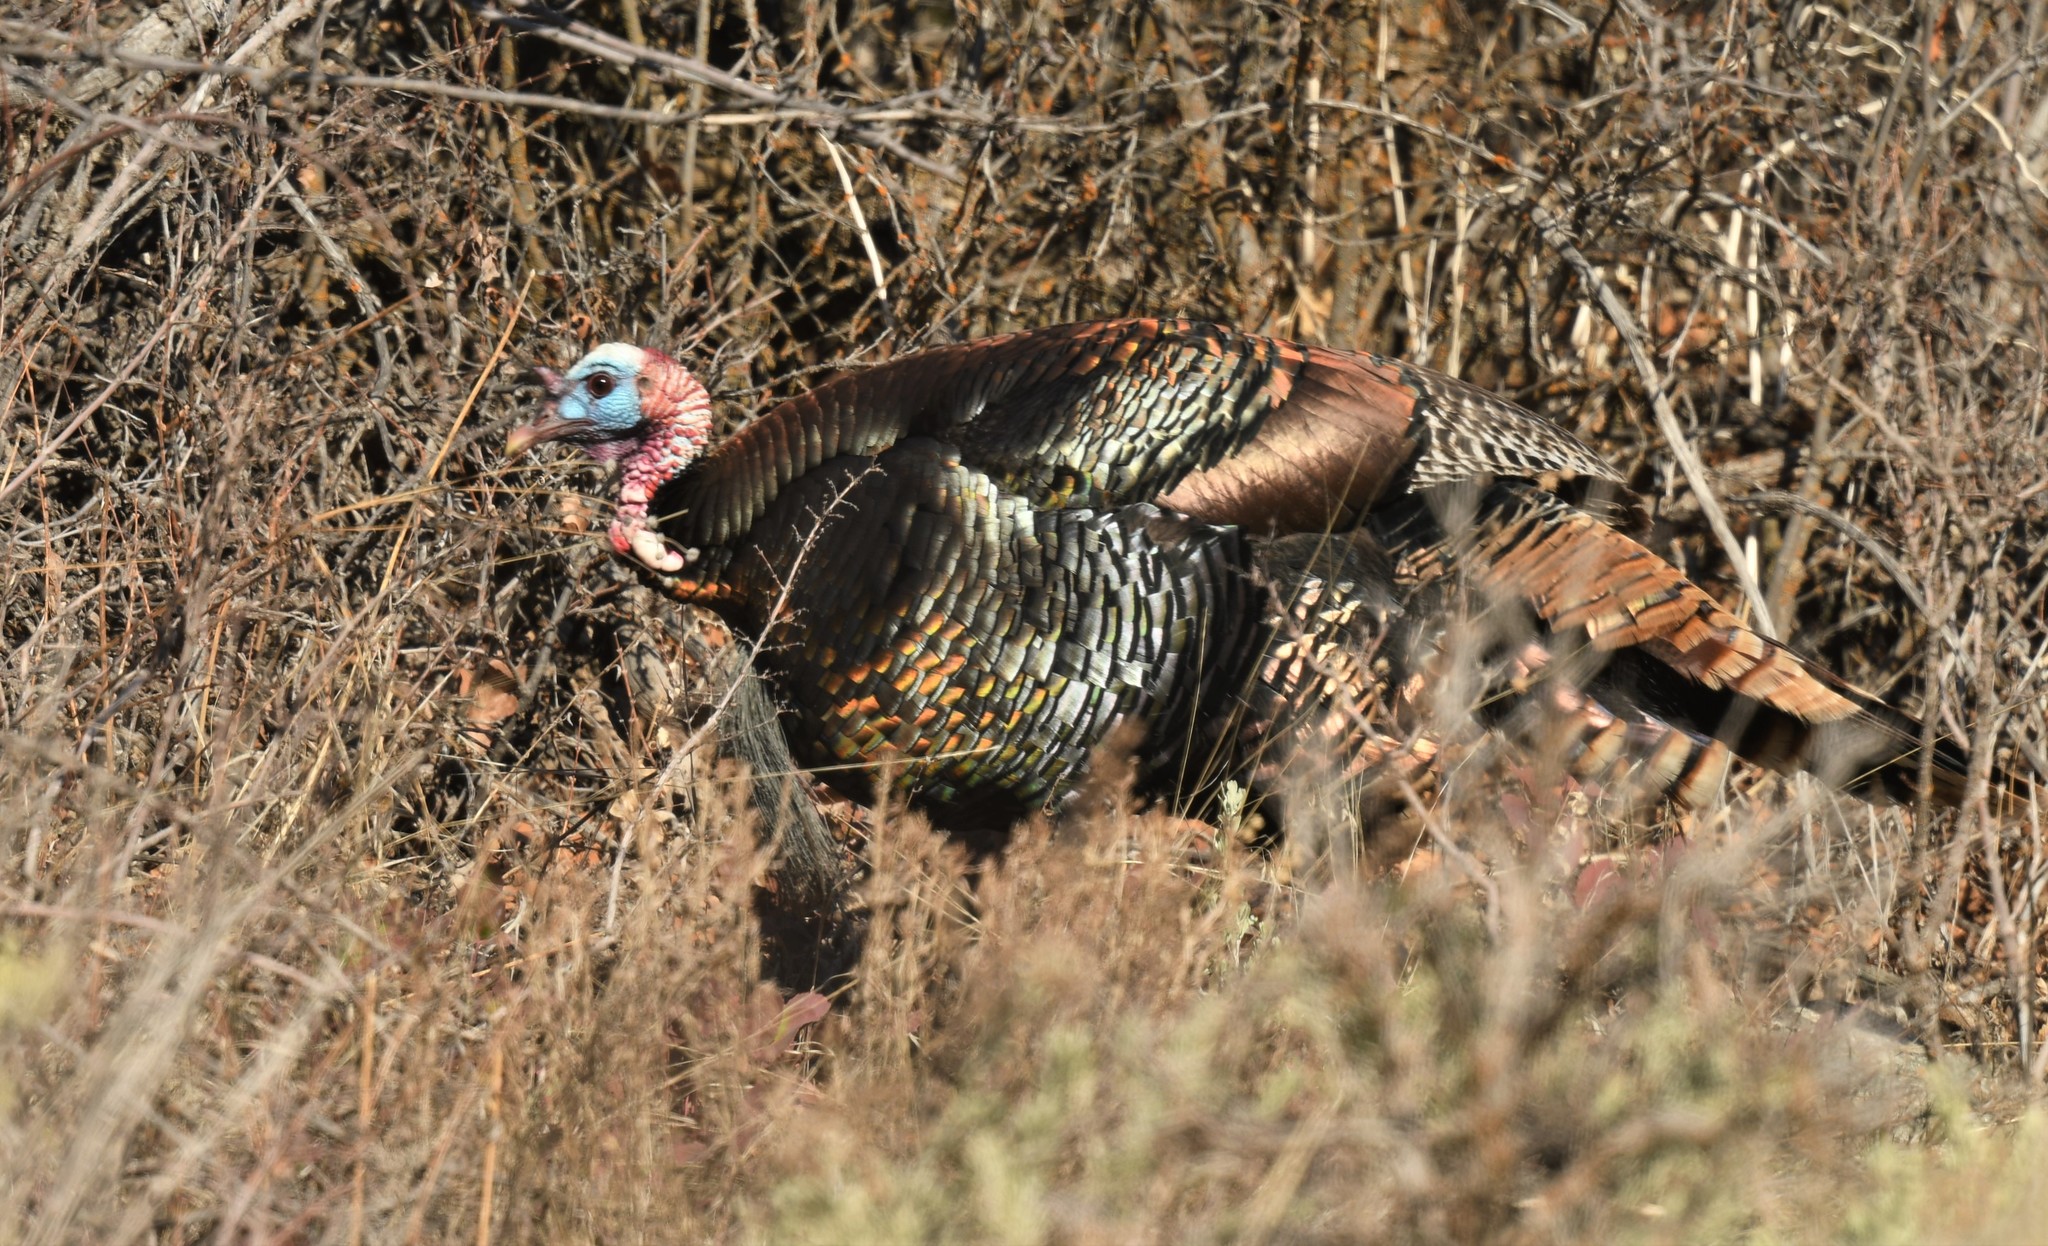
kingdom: Animalia
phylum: Chordata
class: Aves
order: Galliformes
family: Phasianidae
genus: Meleagris
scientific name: Meleagris gallopavo
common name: Wild turkey
